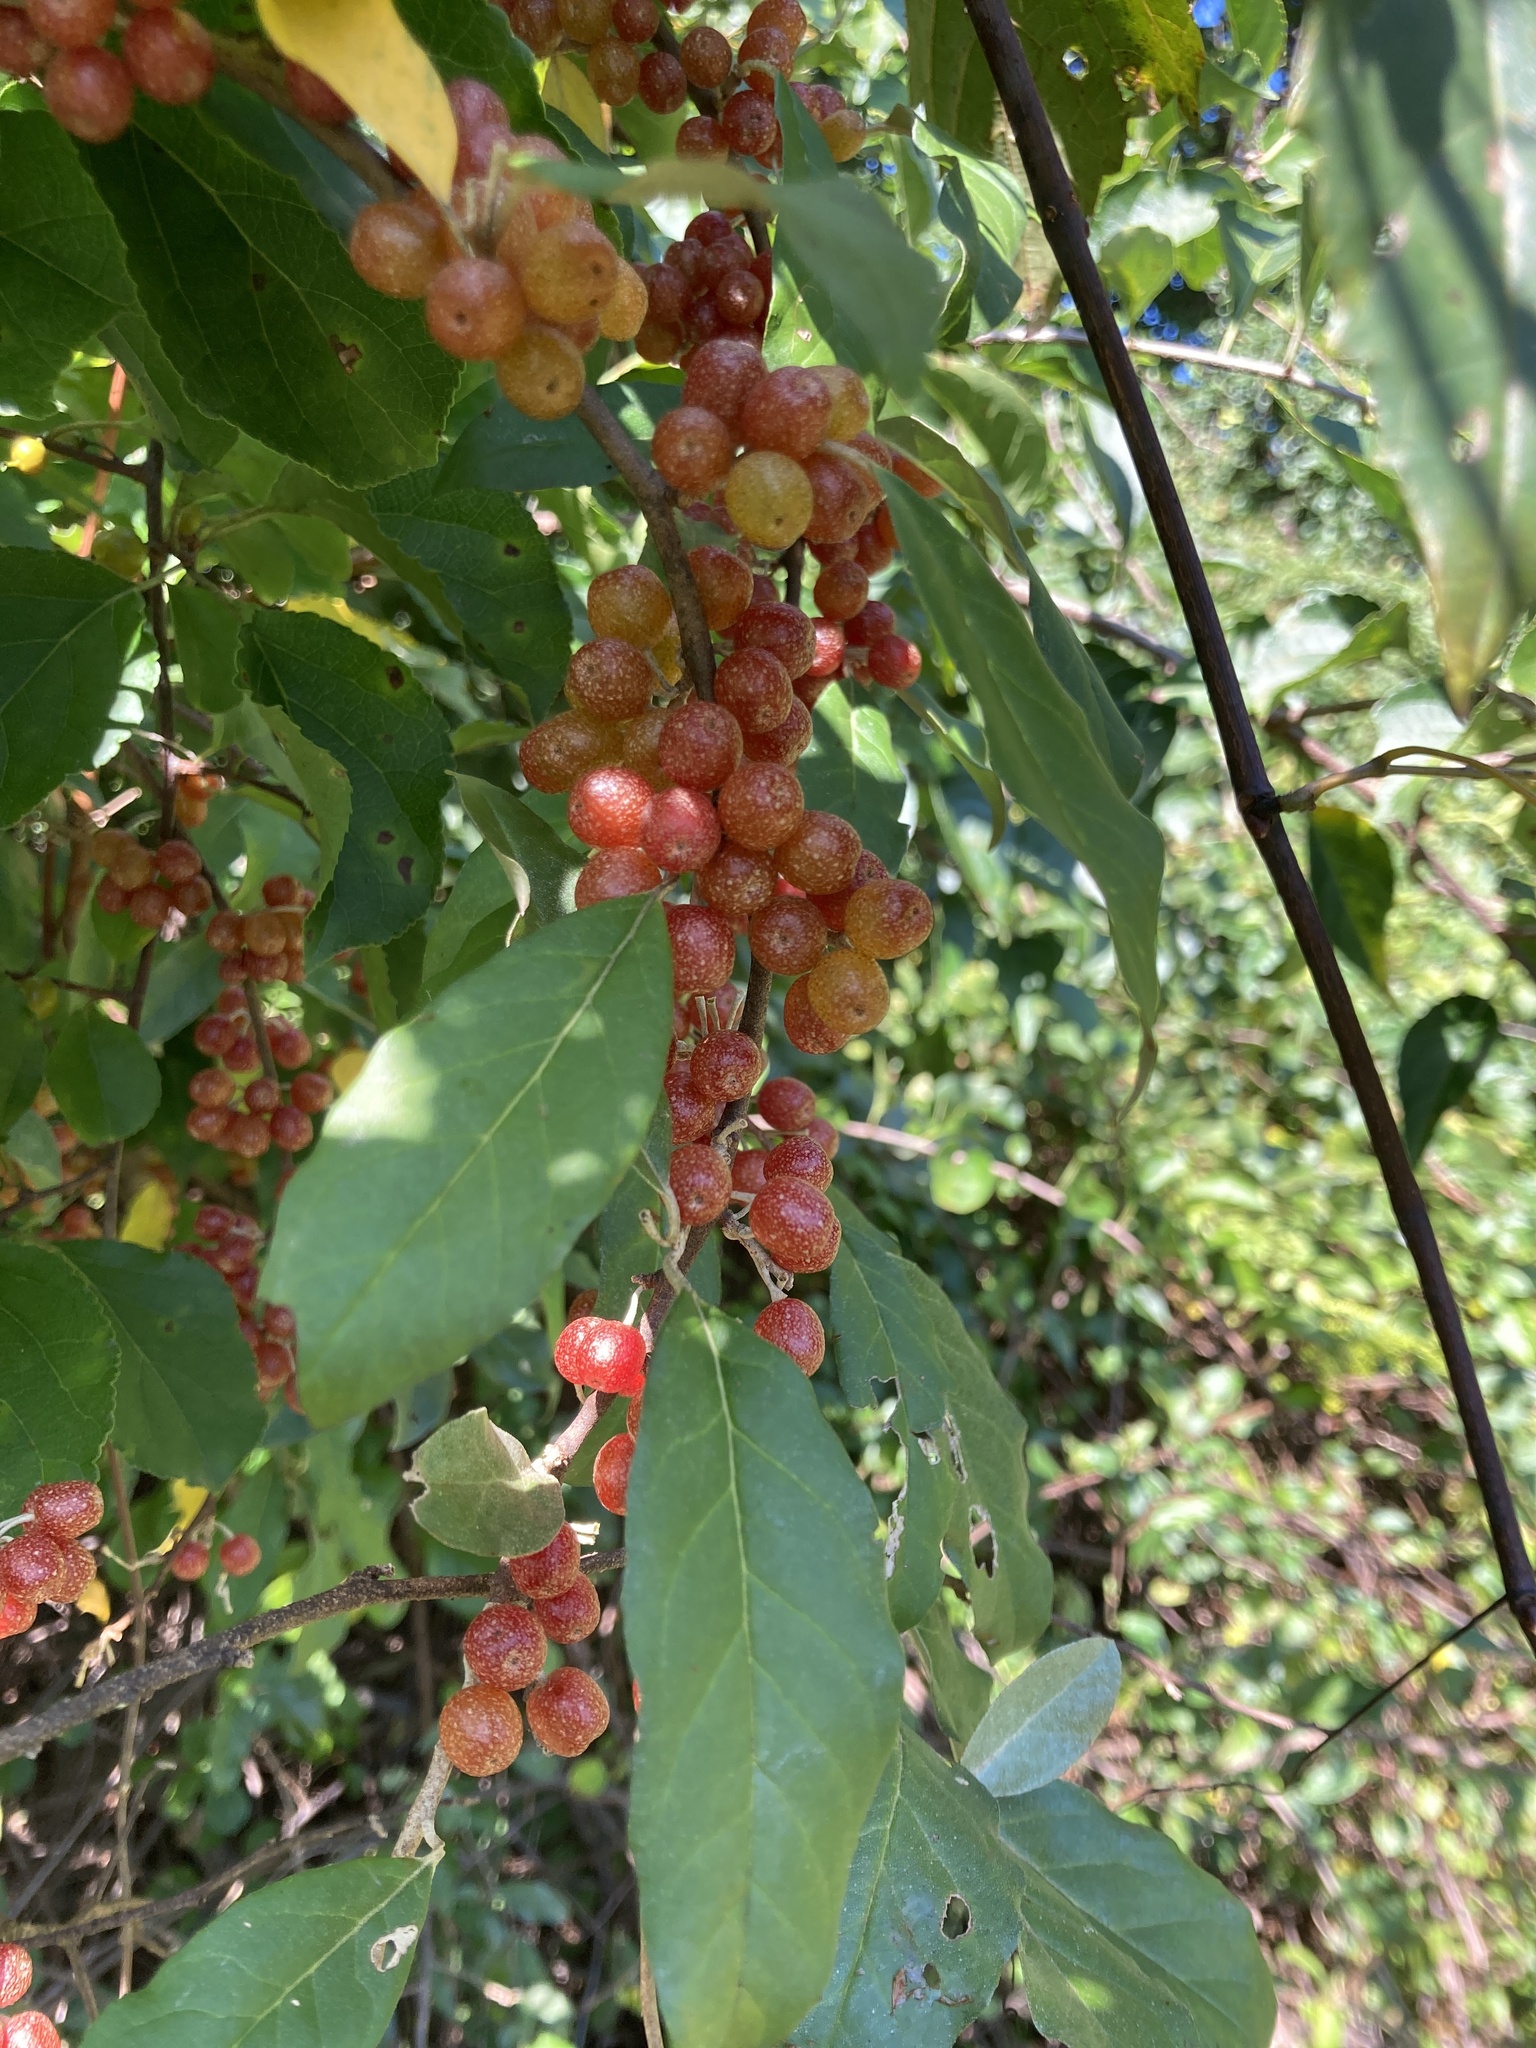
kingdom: Plantae
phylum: Tracheophyta
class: Magnoliopsida
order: Rosales
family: Elaeagnaceae
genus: Elaeagnus
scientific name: Elaeagnus umbellata
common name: Autumn olive
